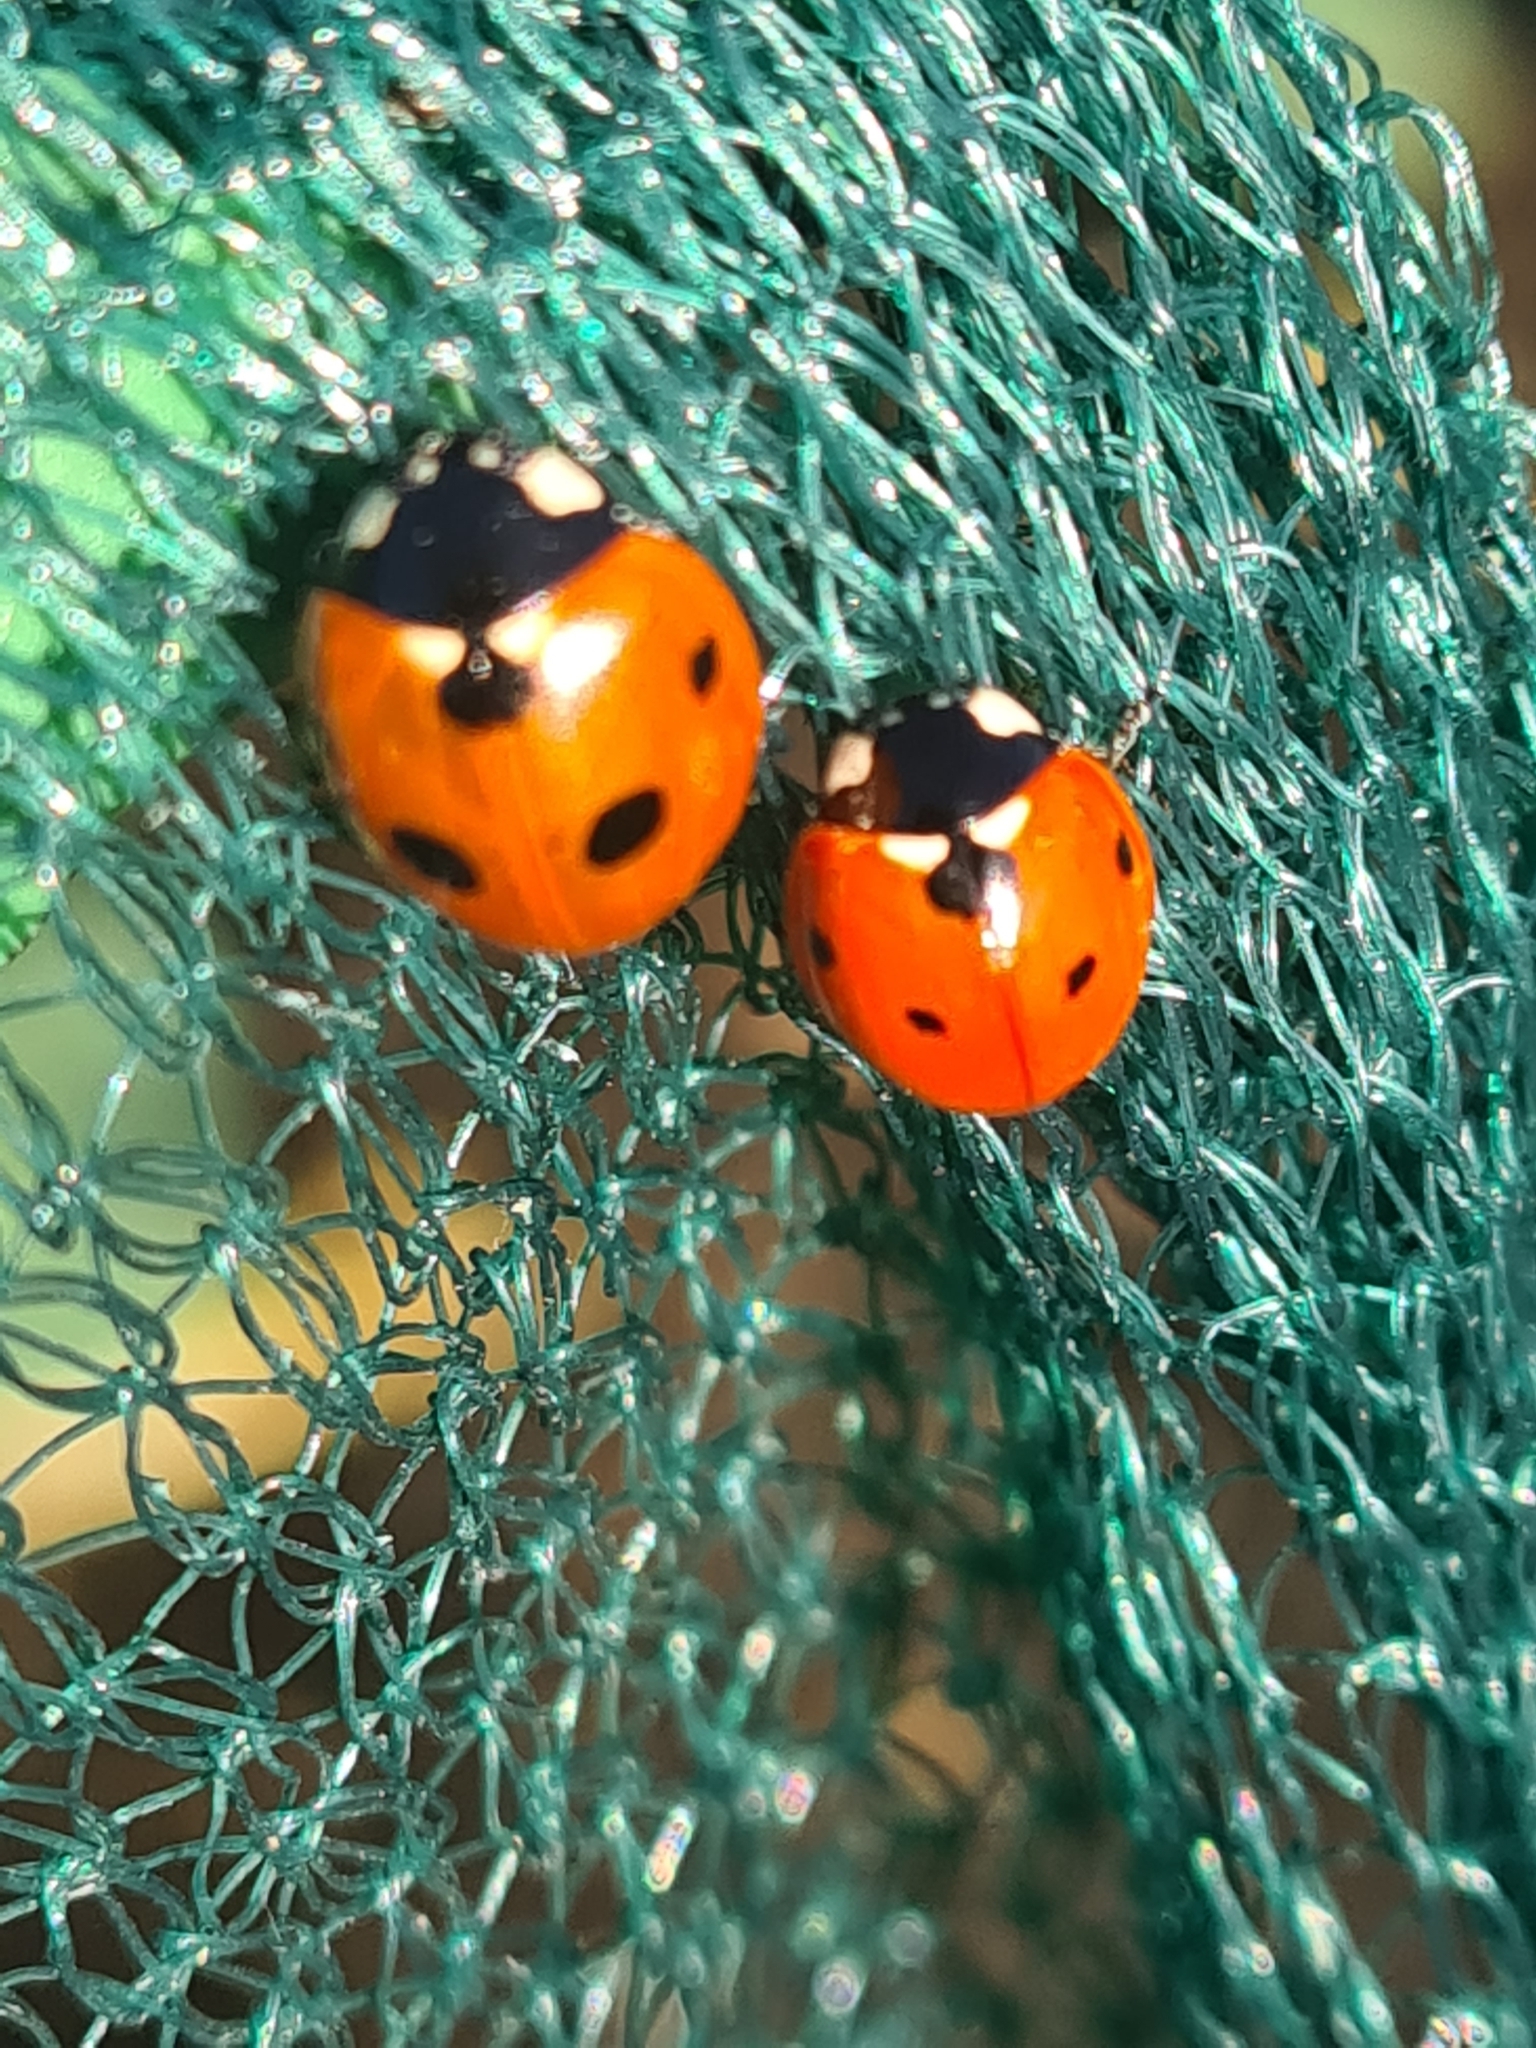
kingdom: Animalia
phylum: Arthropoda
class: Insecta
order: Coleoptera
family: Coccinellidae
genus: Coccinella
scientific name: Coccinella septempunctata
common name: Sevenspotted lady beetle
